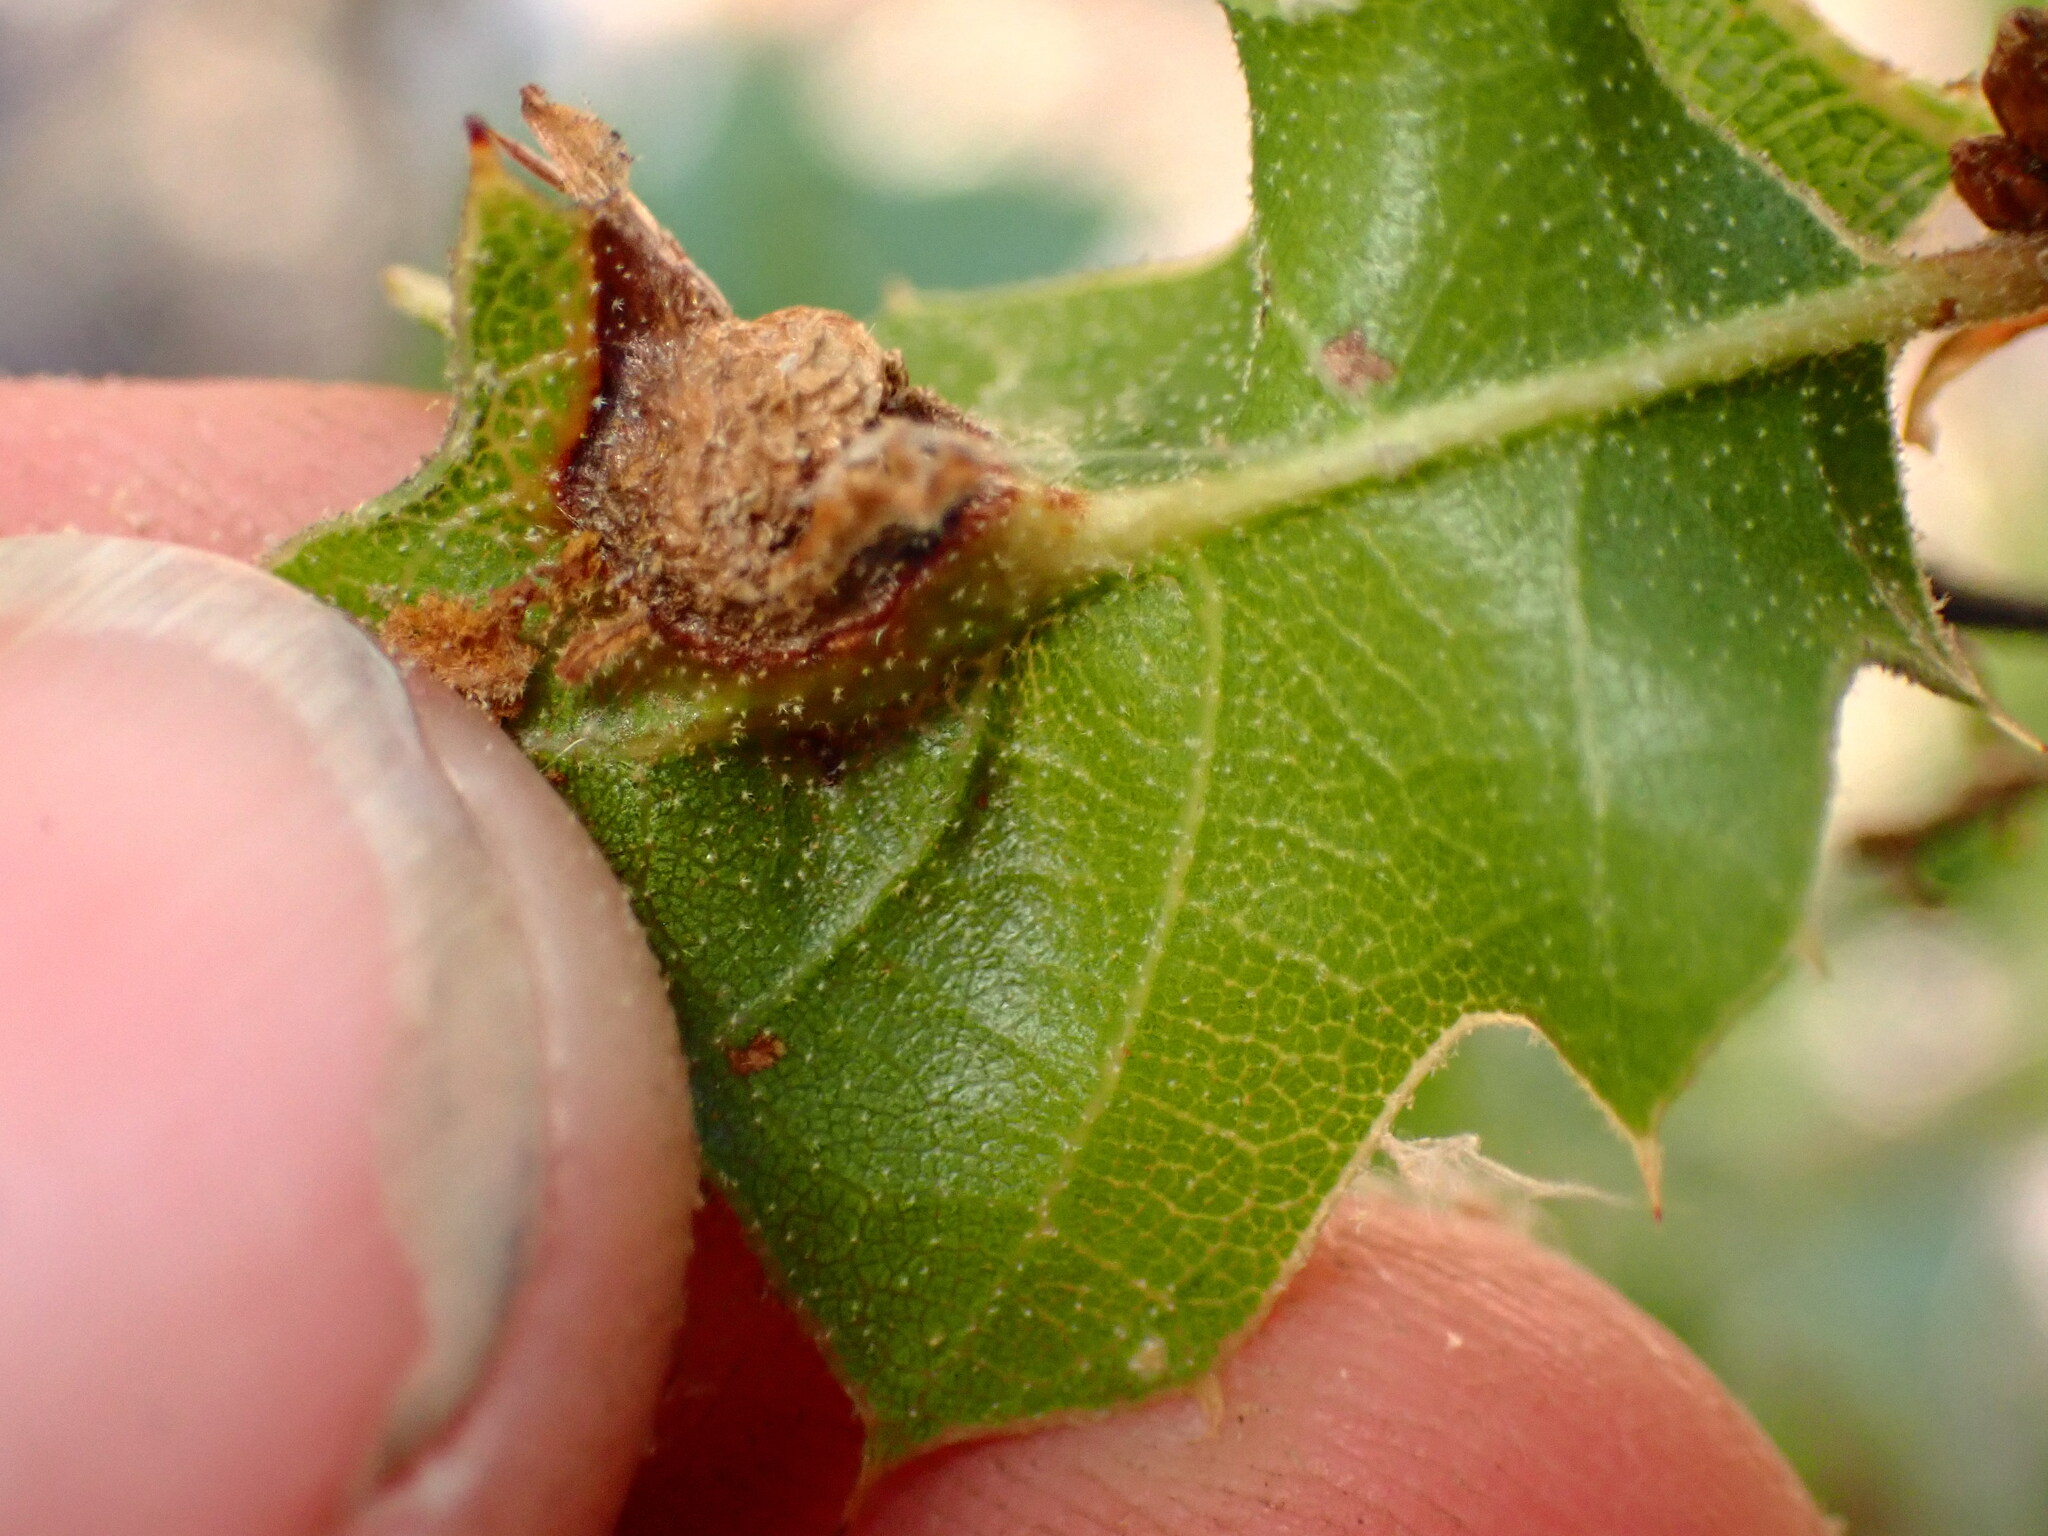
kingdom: Animalia
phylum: Arthropoda
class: Insecta
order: Hymenoptera
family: Cynipidae
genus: Callirhytis
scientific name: Callirhytis
